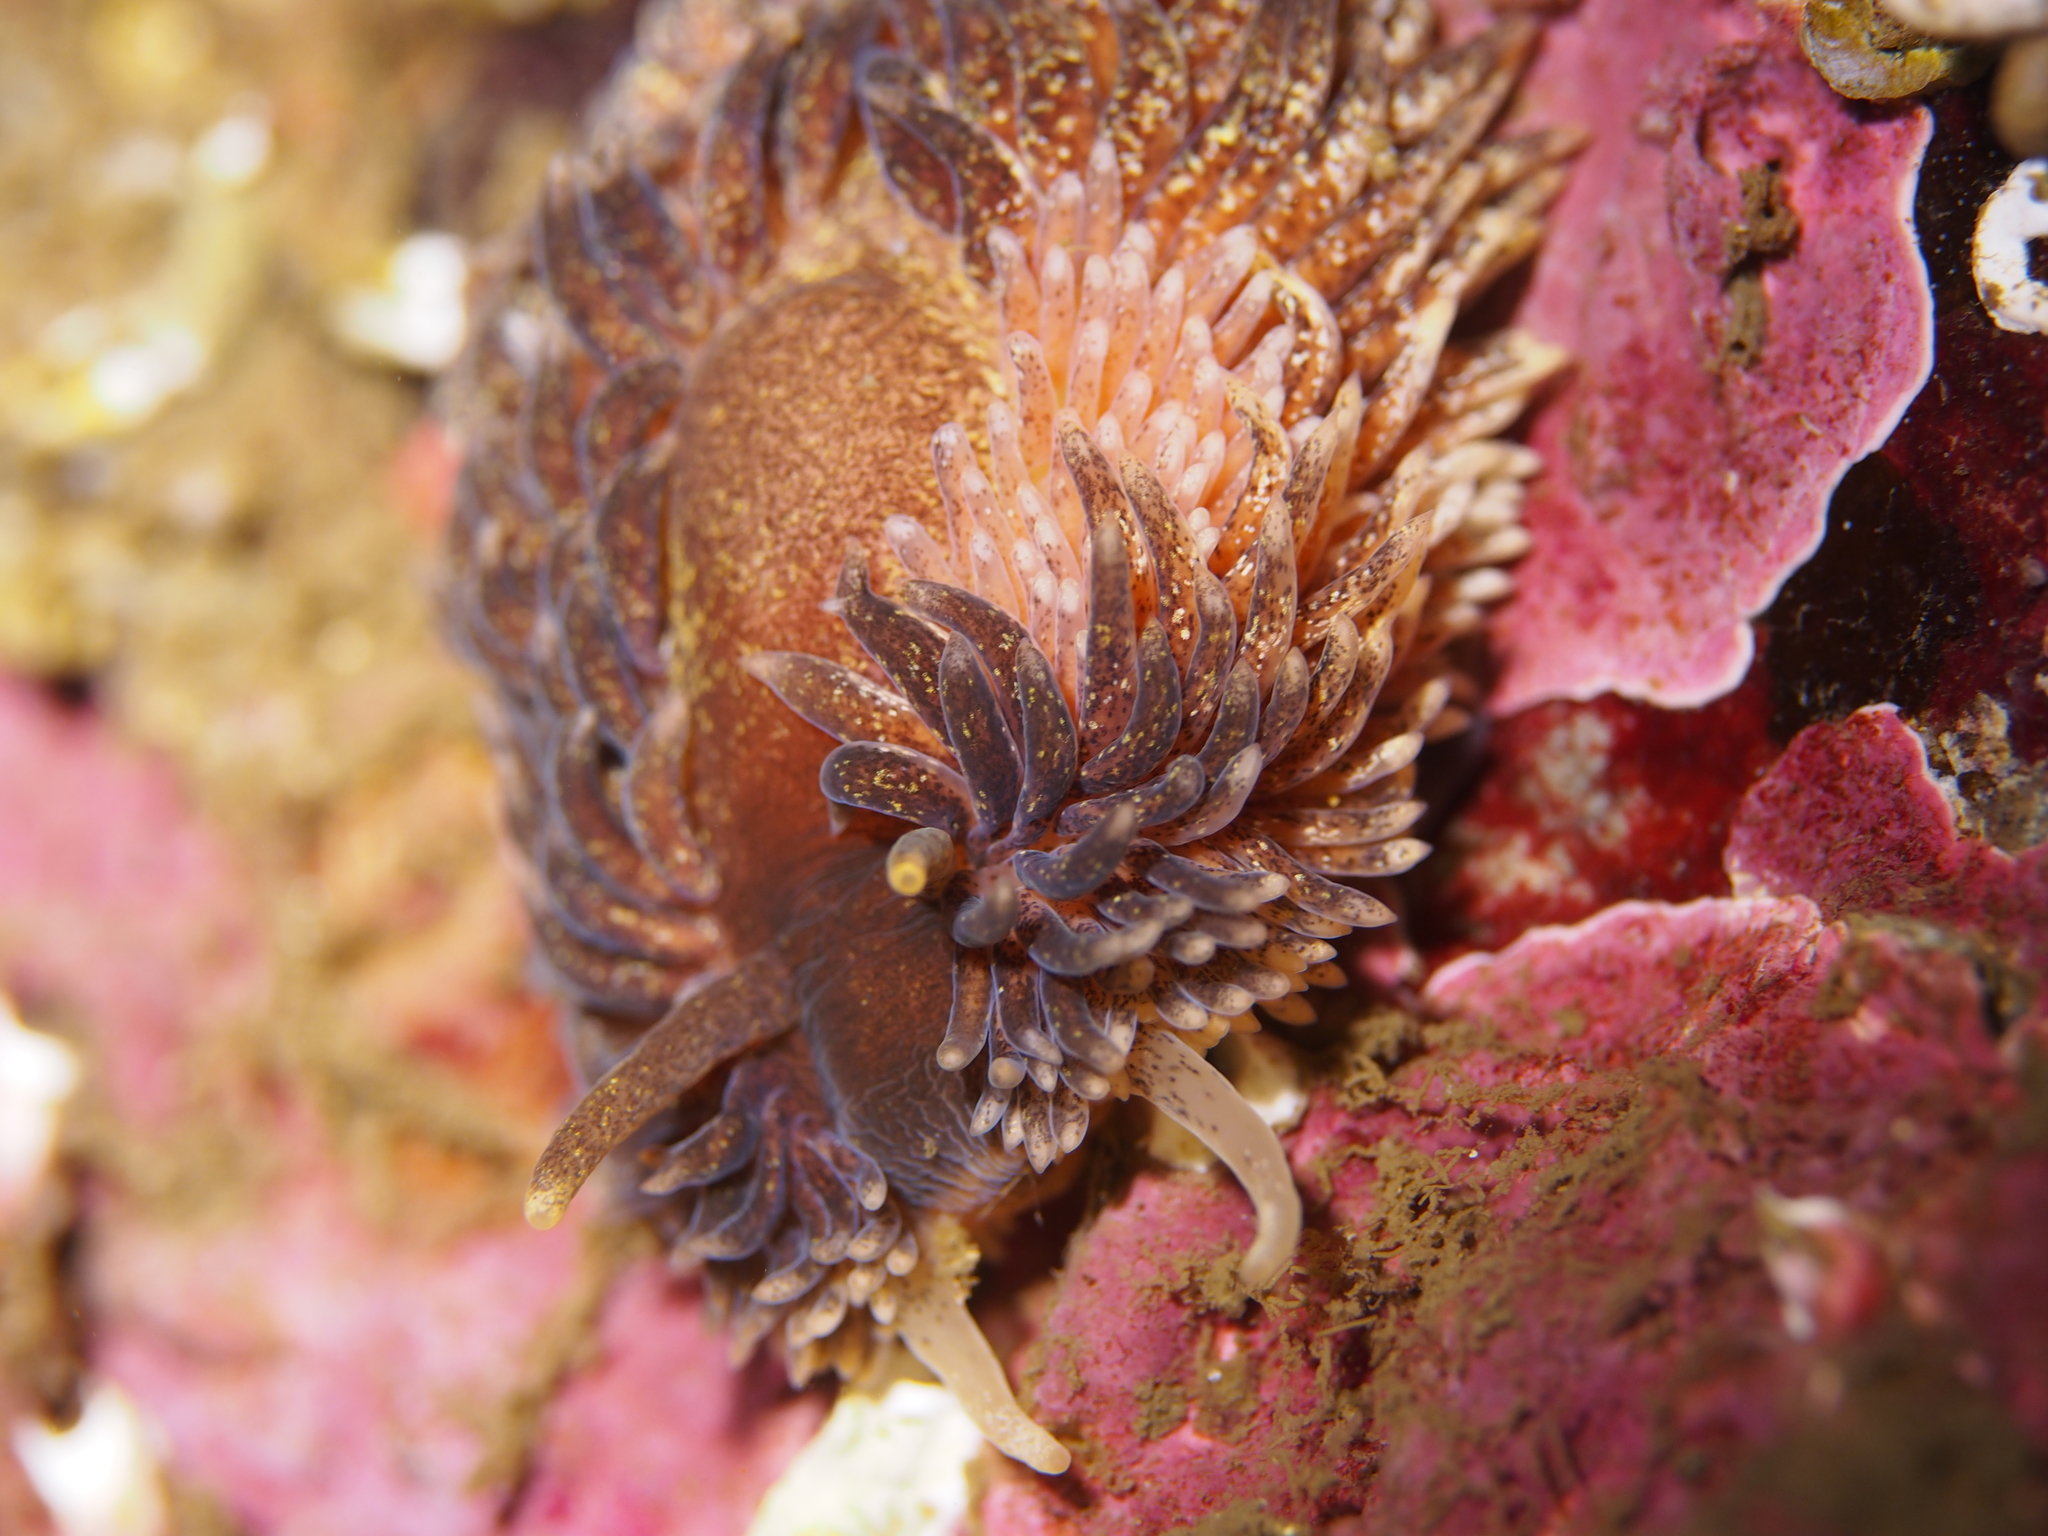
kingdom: Animalia
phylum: Mollusca
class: Gastropoda
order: Nudibranchia
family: Aeolidiidae
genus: Aeolidia
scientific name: Aeolidia papillosa
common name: Common grey sea slug
